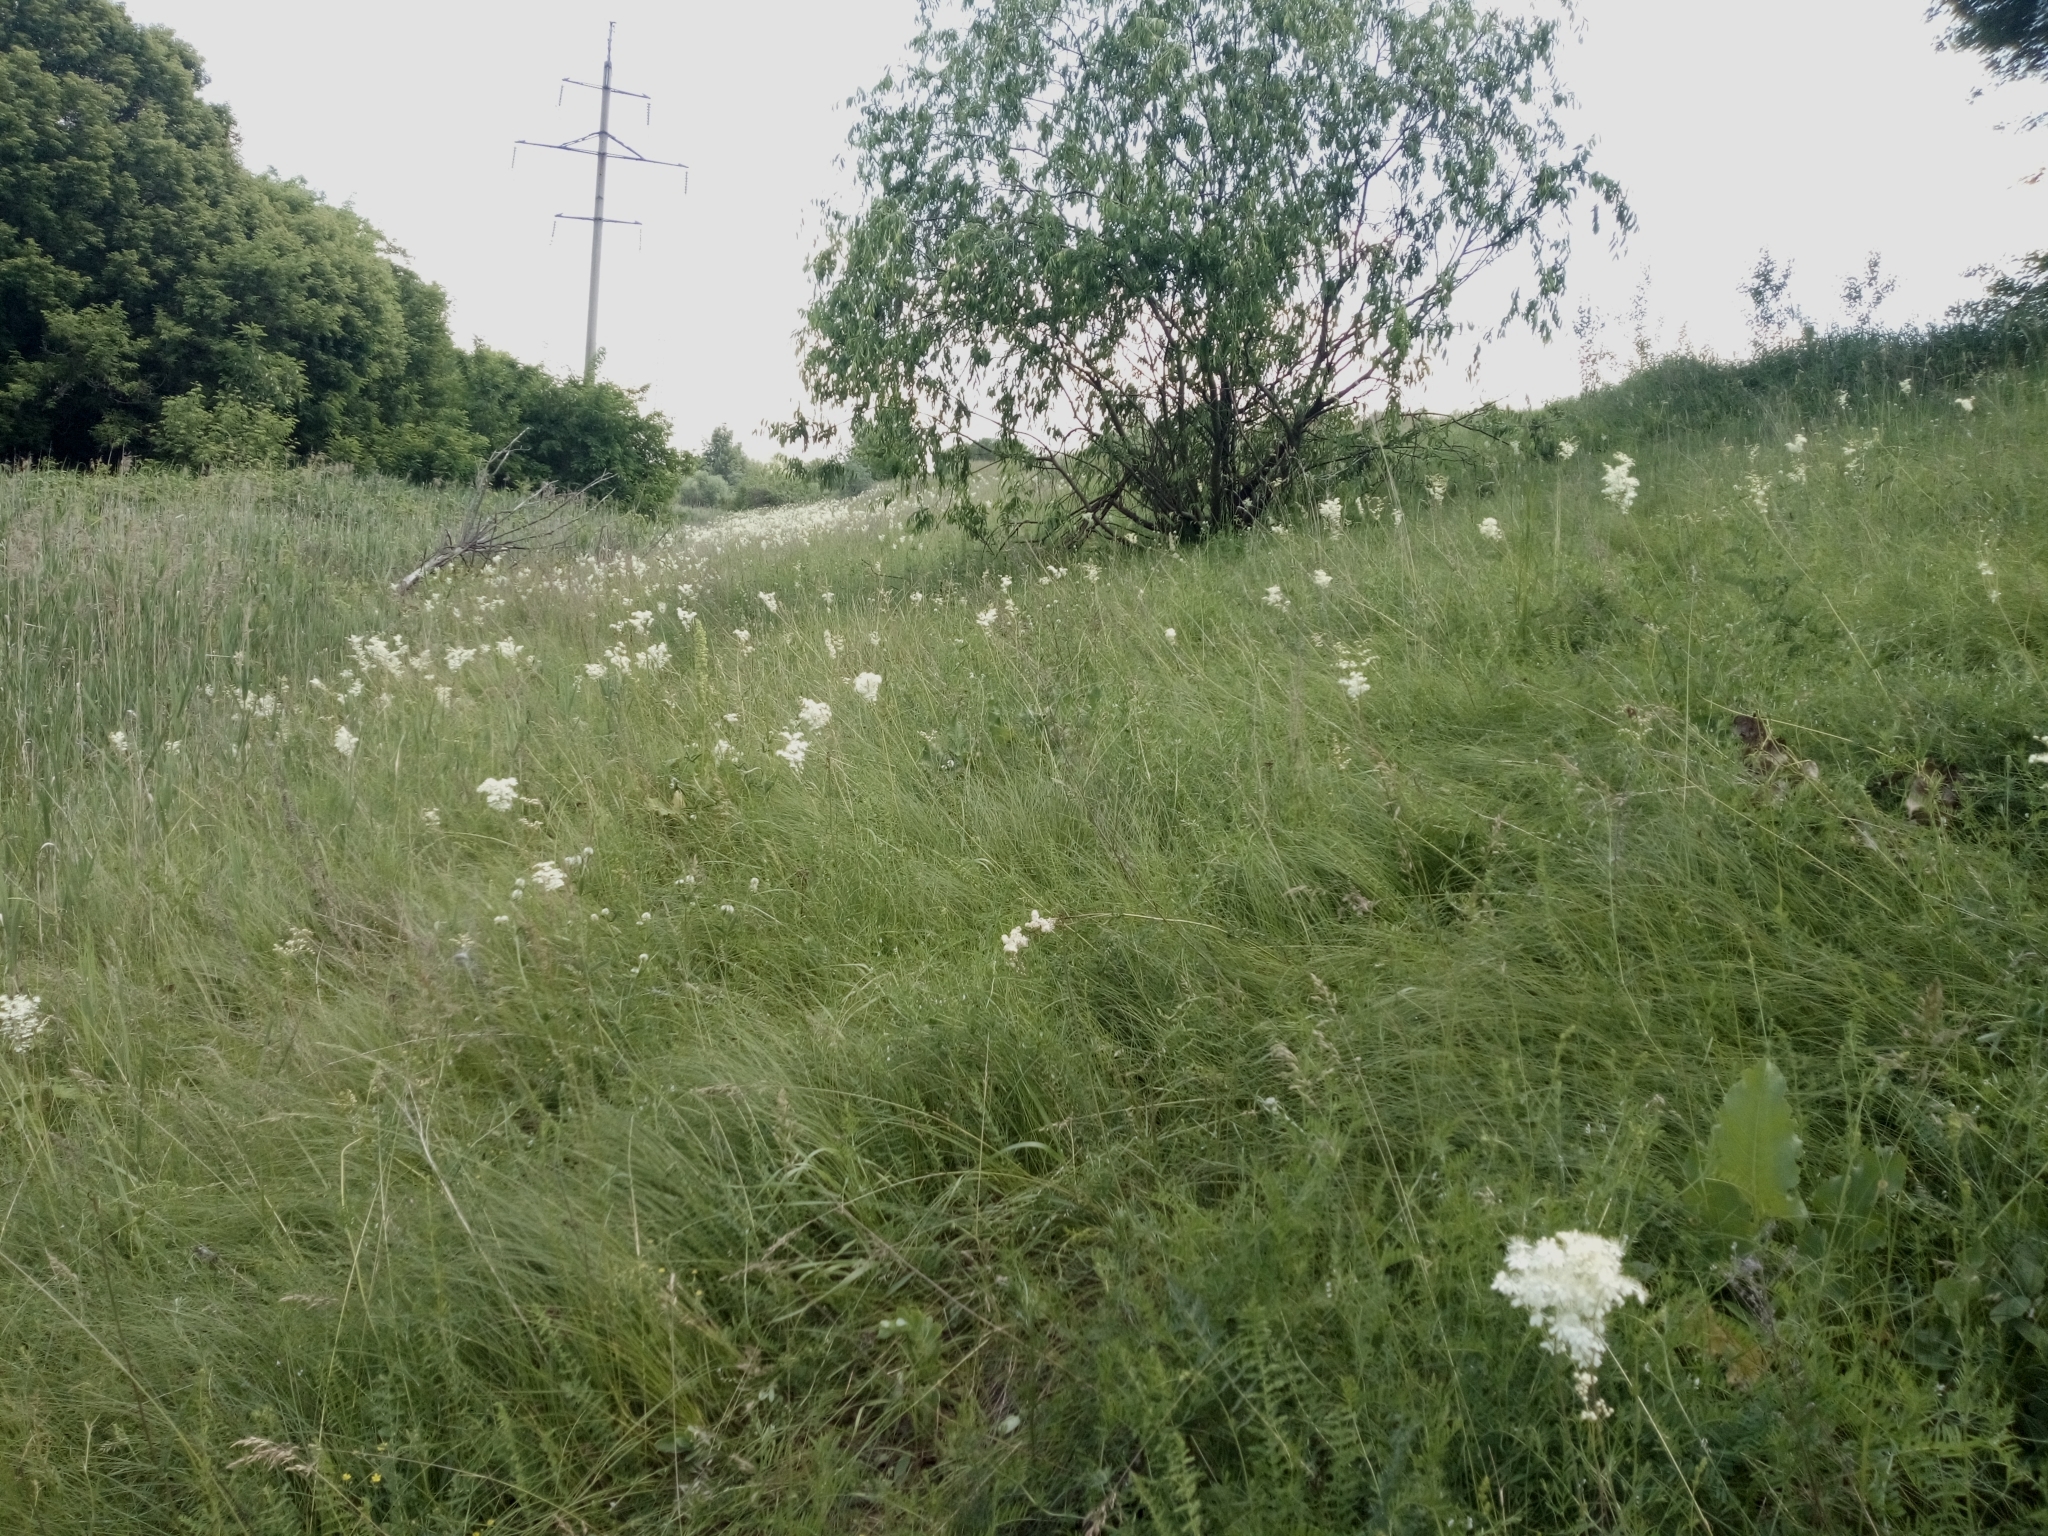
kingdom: Plantae
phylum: Tracheophyta
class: Magnoliopsida
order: Rosales
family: Rosaceae
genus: Filipendula
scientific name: Filipendula vulgaris
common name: Dropwort
